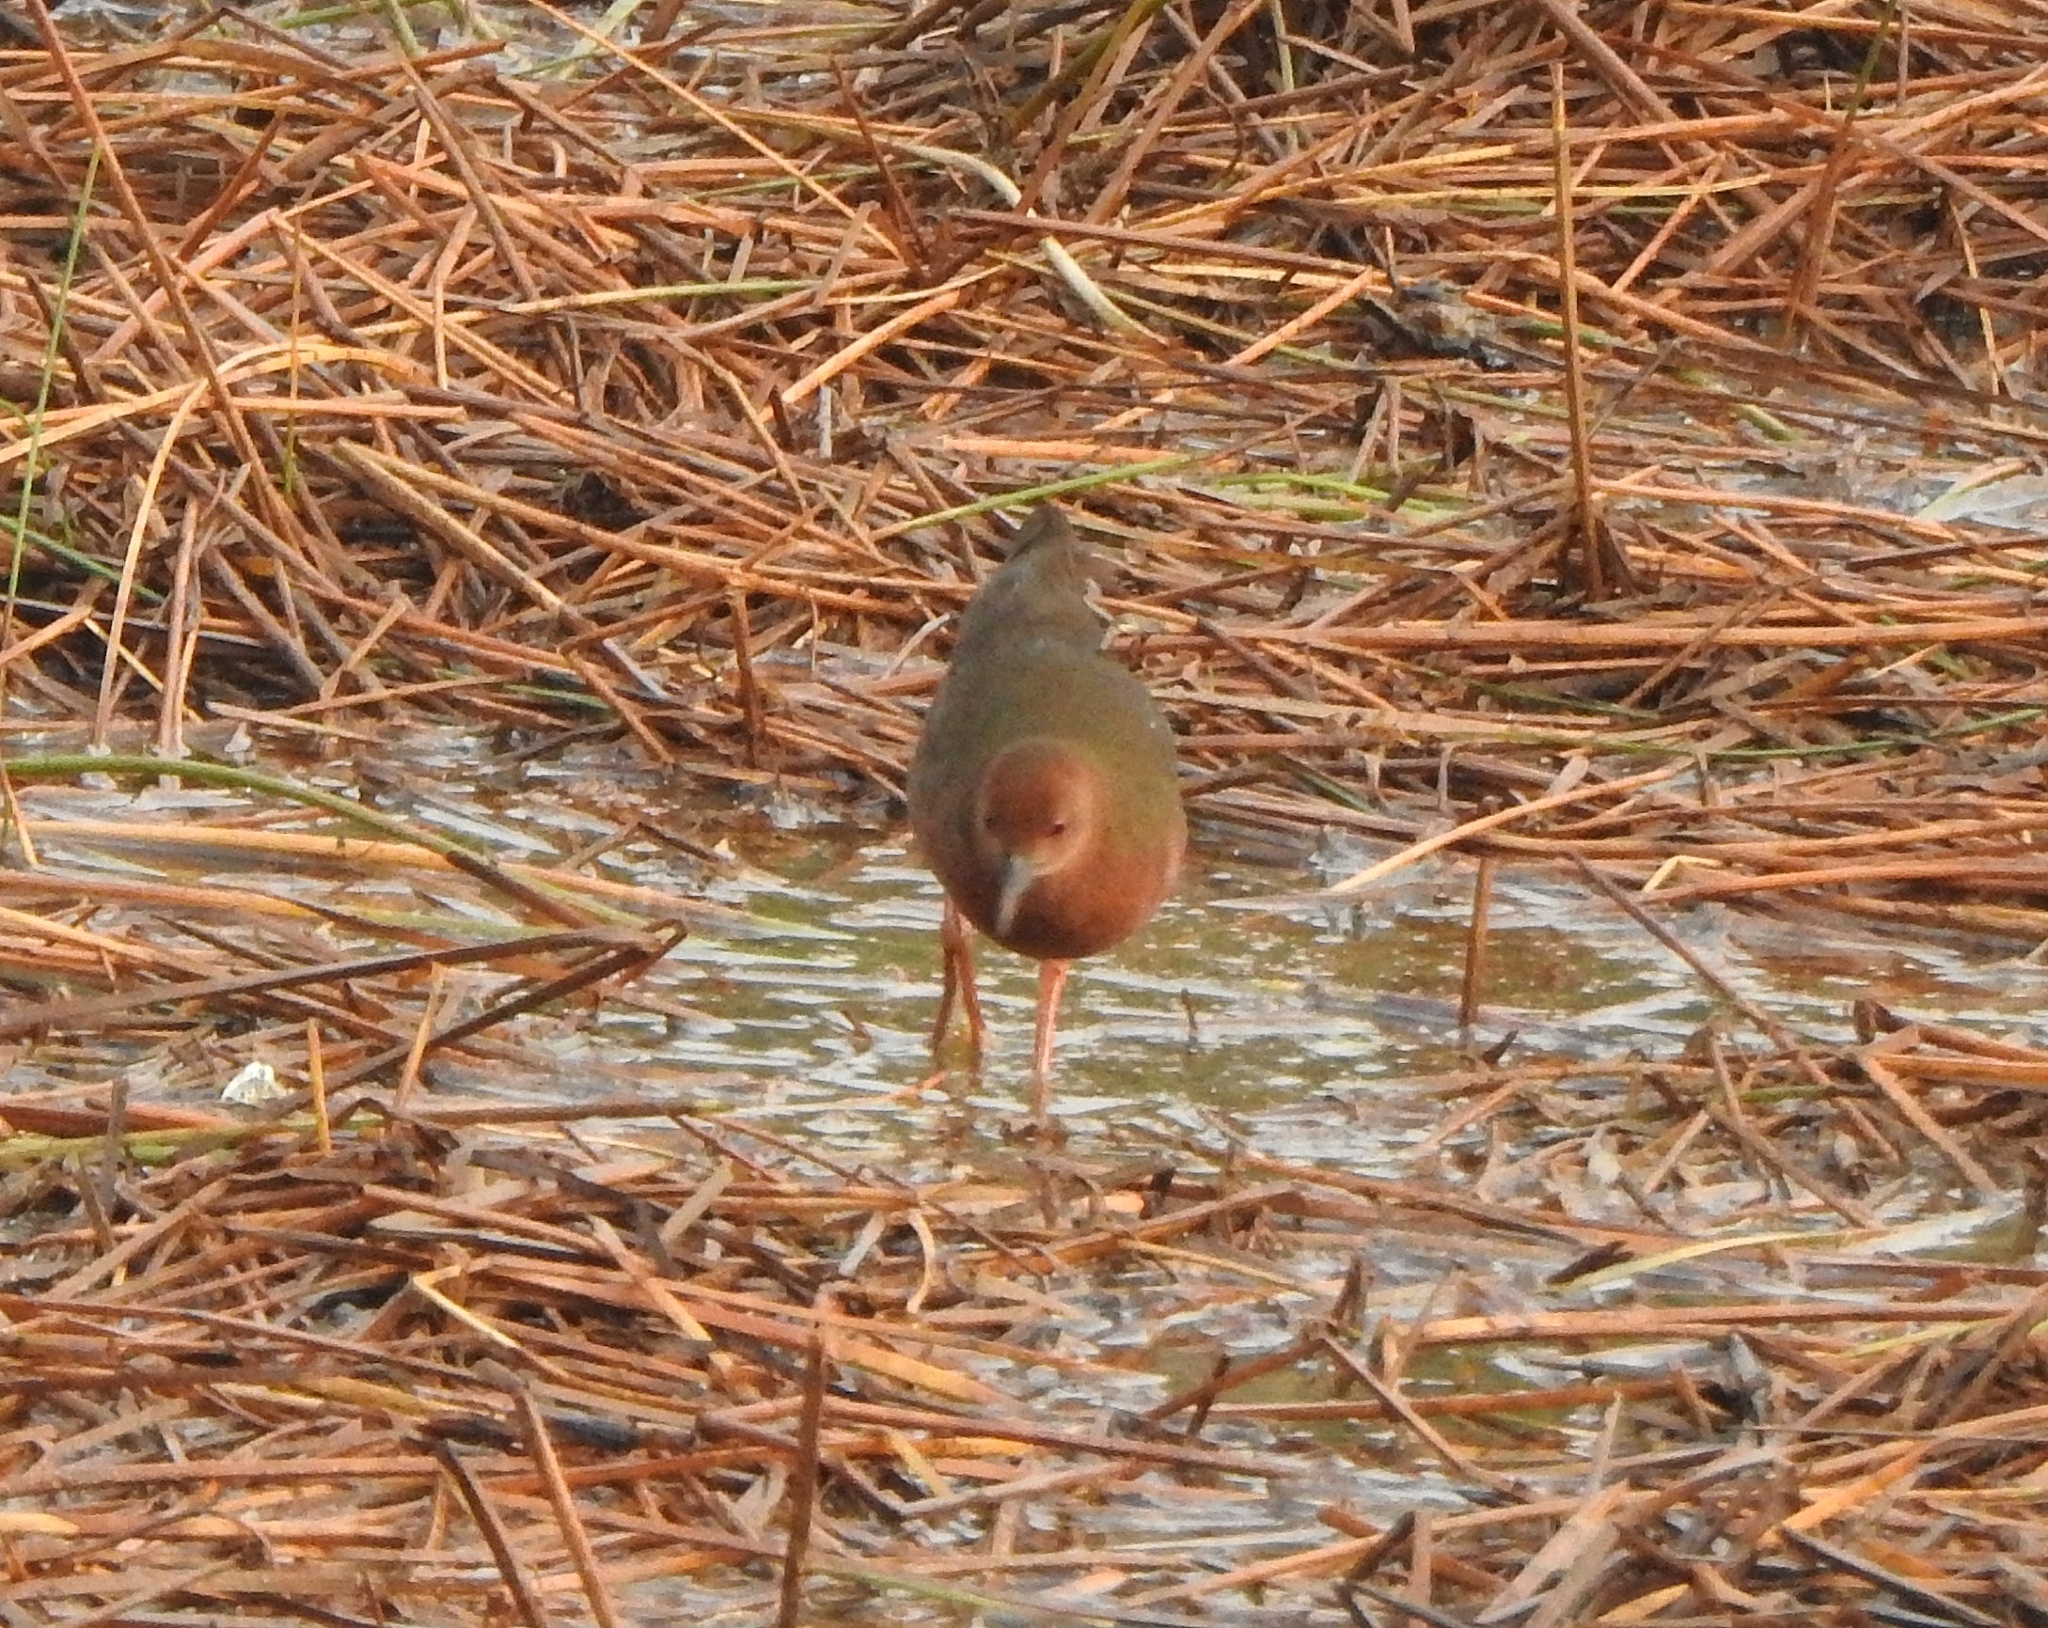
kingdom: Animalia
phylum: Chordata
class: Aves
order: Gruiformes
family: Rallidae
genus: Porzana
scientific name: Porzana fusca
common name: Ruddy-breasted crake
